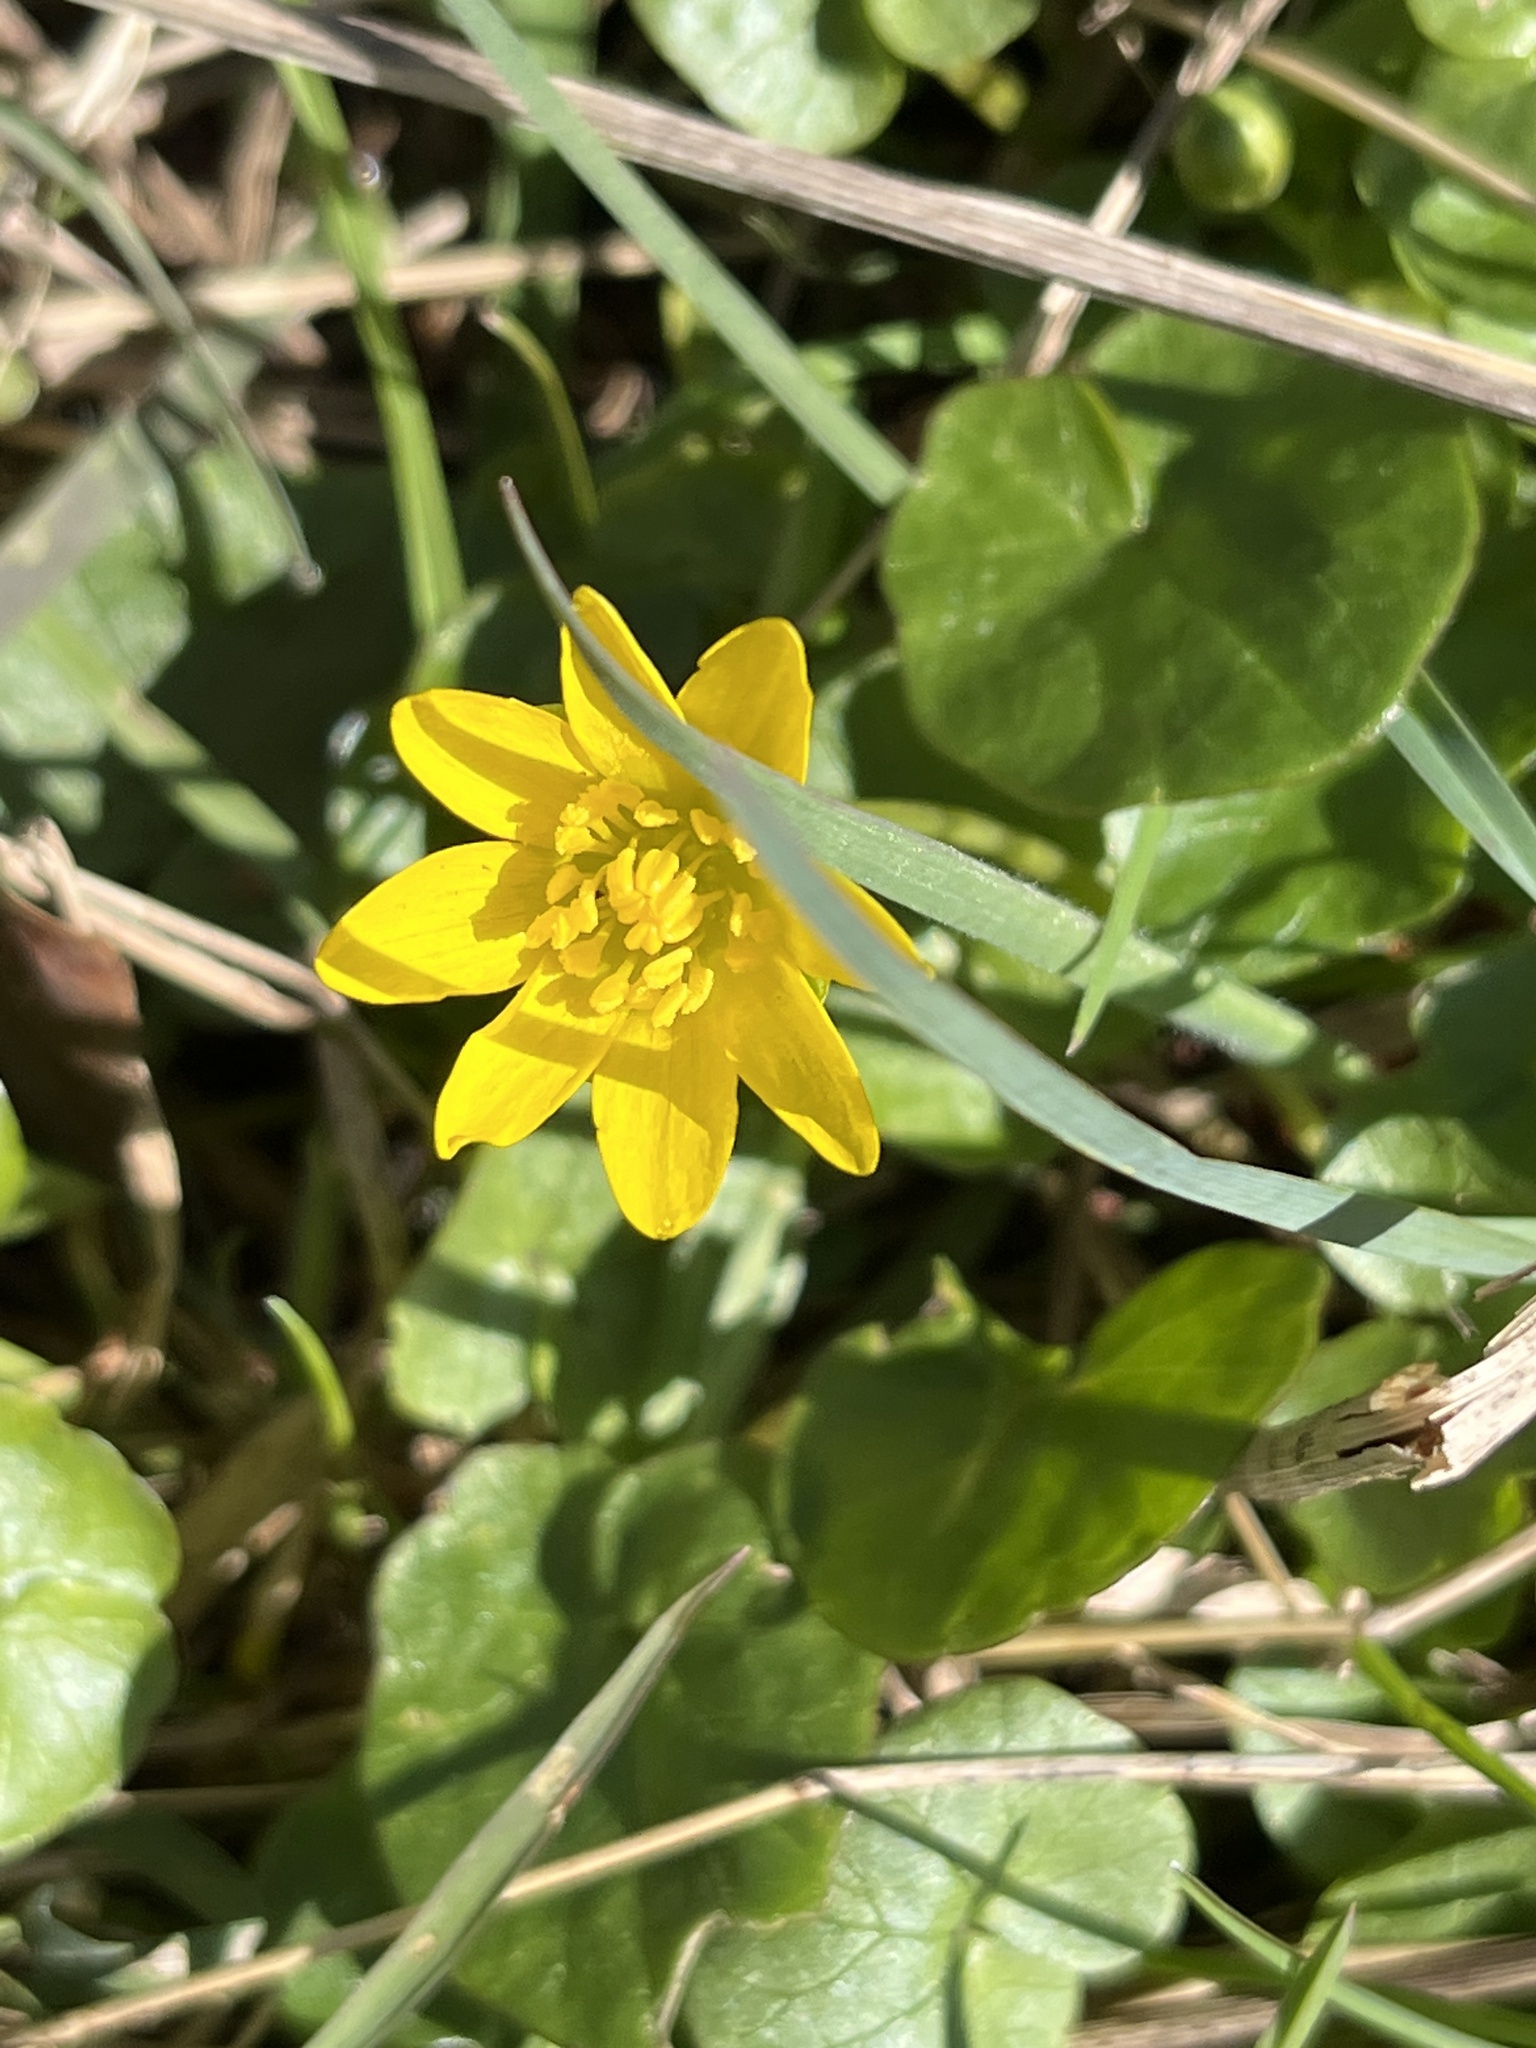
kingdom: Plantae
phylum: Tracheophyta
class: Magnoliopsida
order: Ranunculales
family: Ranunculaceae
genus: Ficaria
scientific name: Ficaria verna
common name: Lesser celandine
